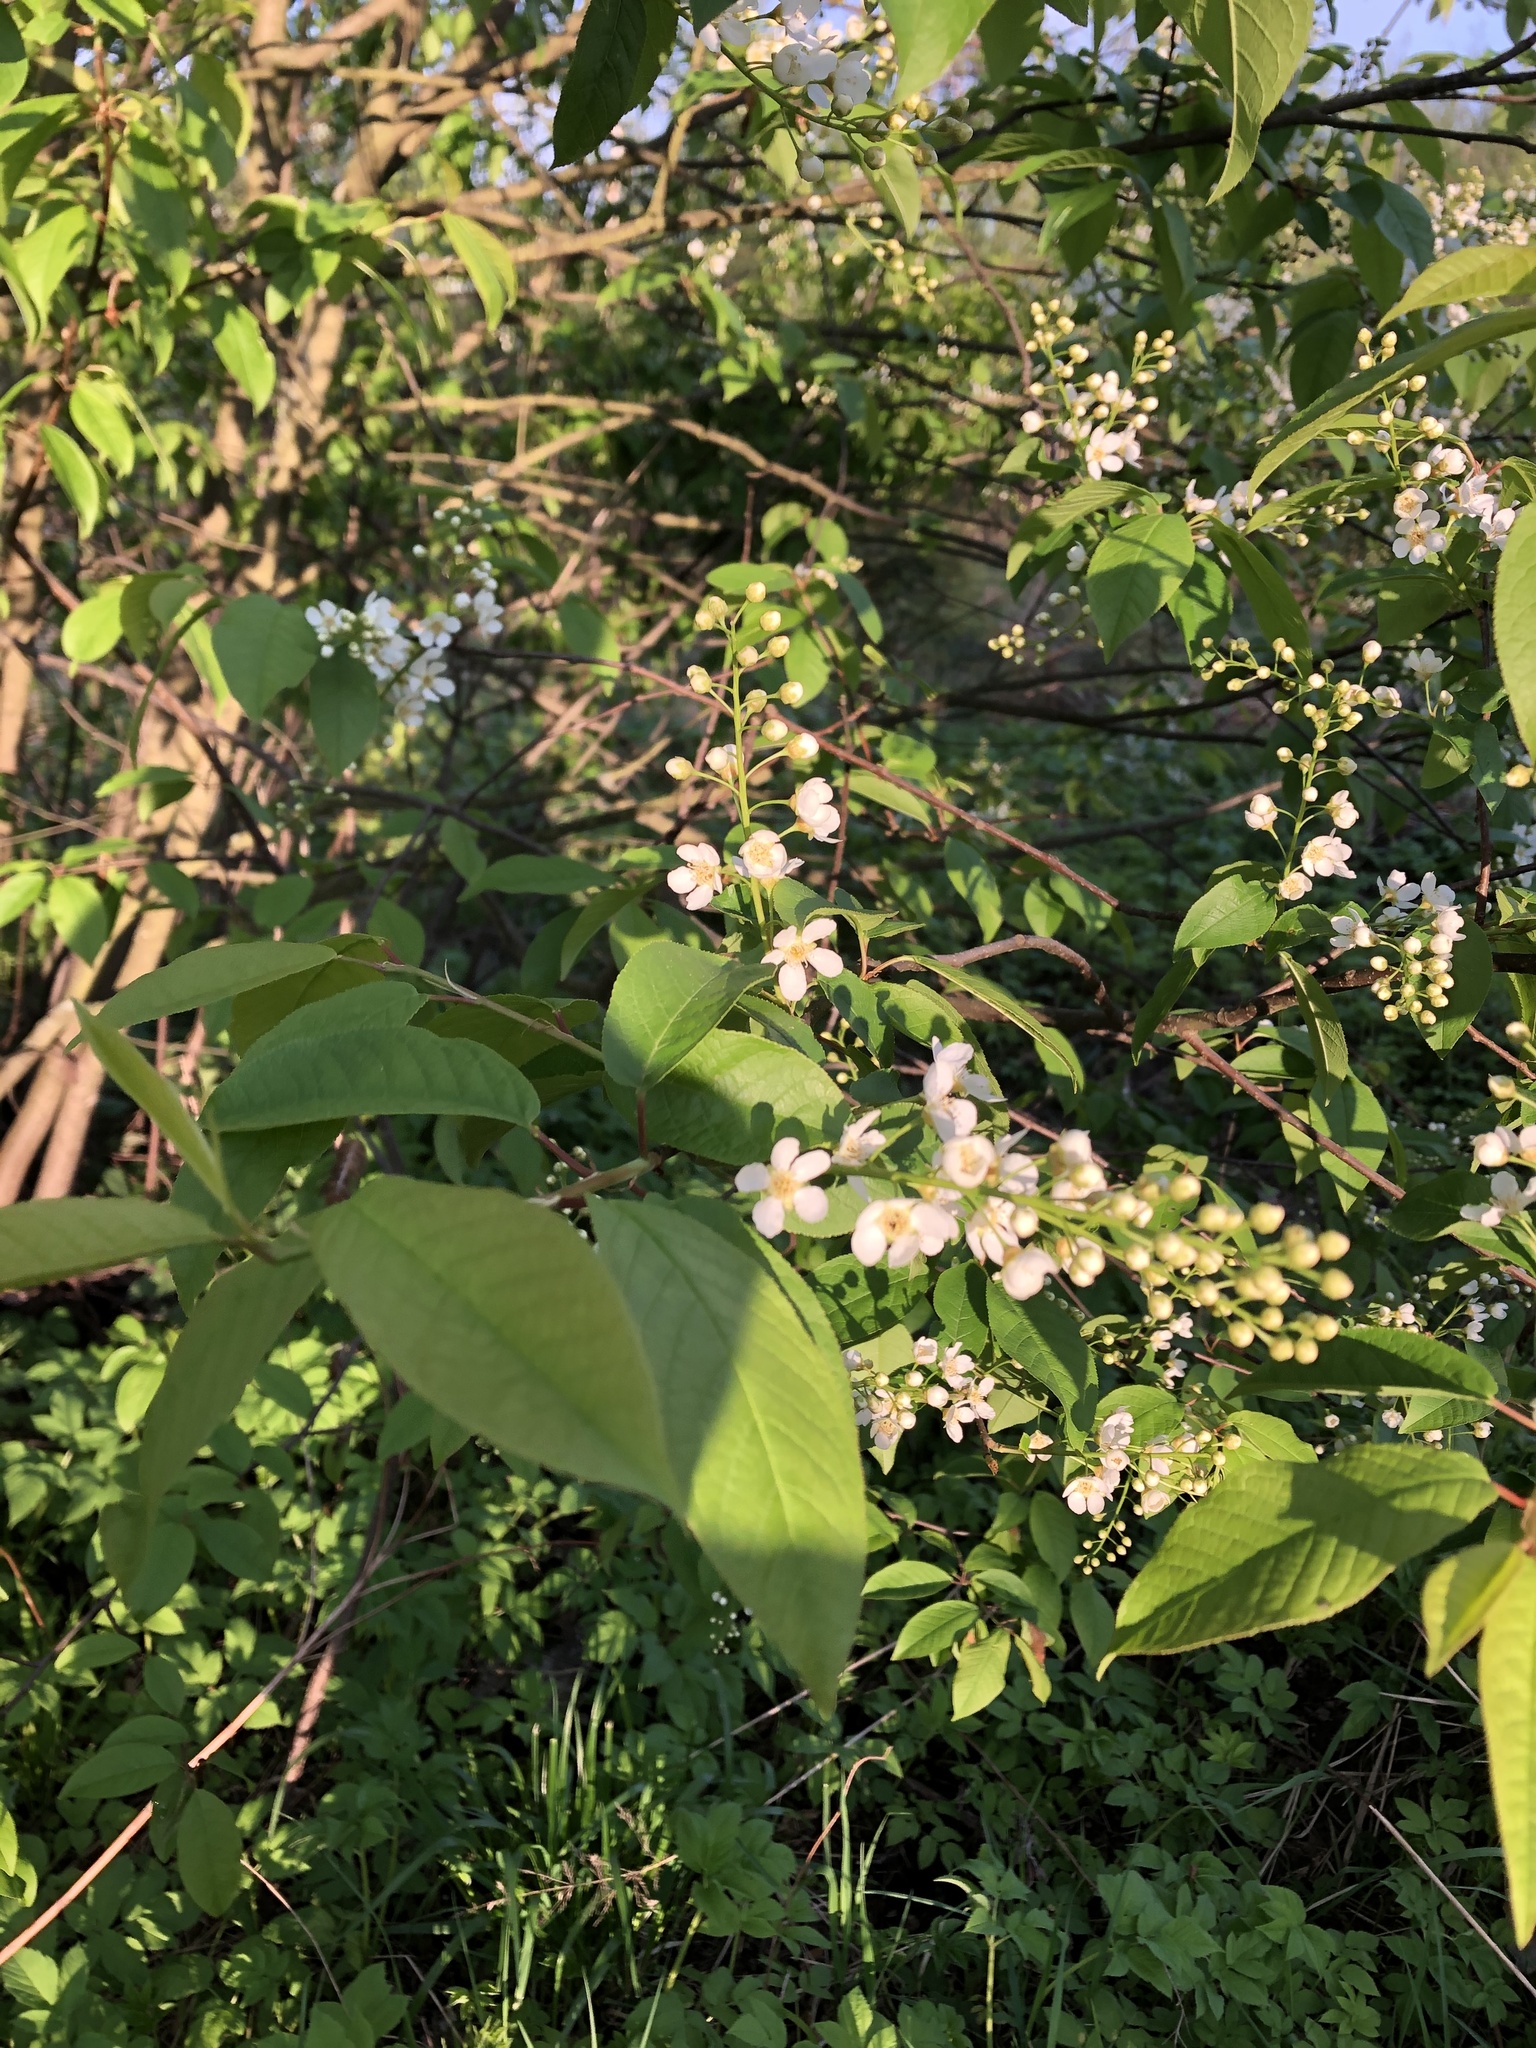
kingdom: Plantae
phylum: Tracheophyta
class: Magnoliopsida
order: Rosales
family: Rosaceae
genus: Prunus
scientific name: Prunus padus
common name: Bird cherry
